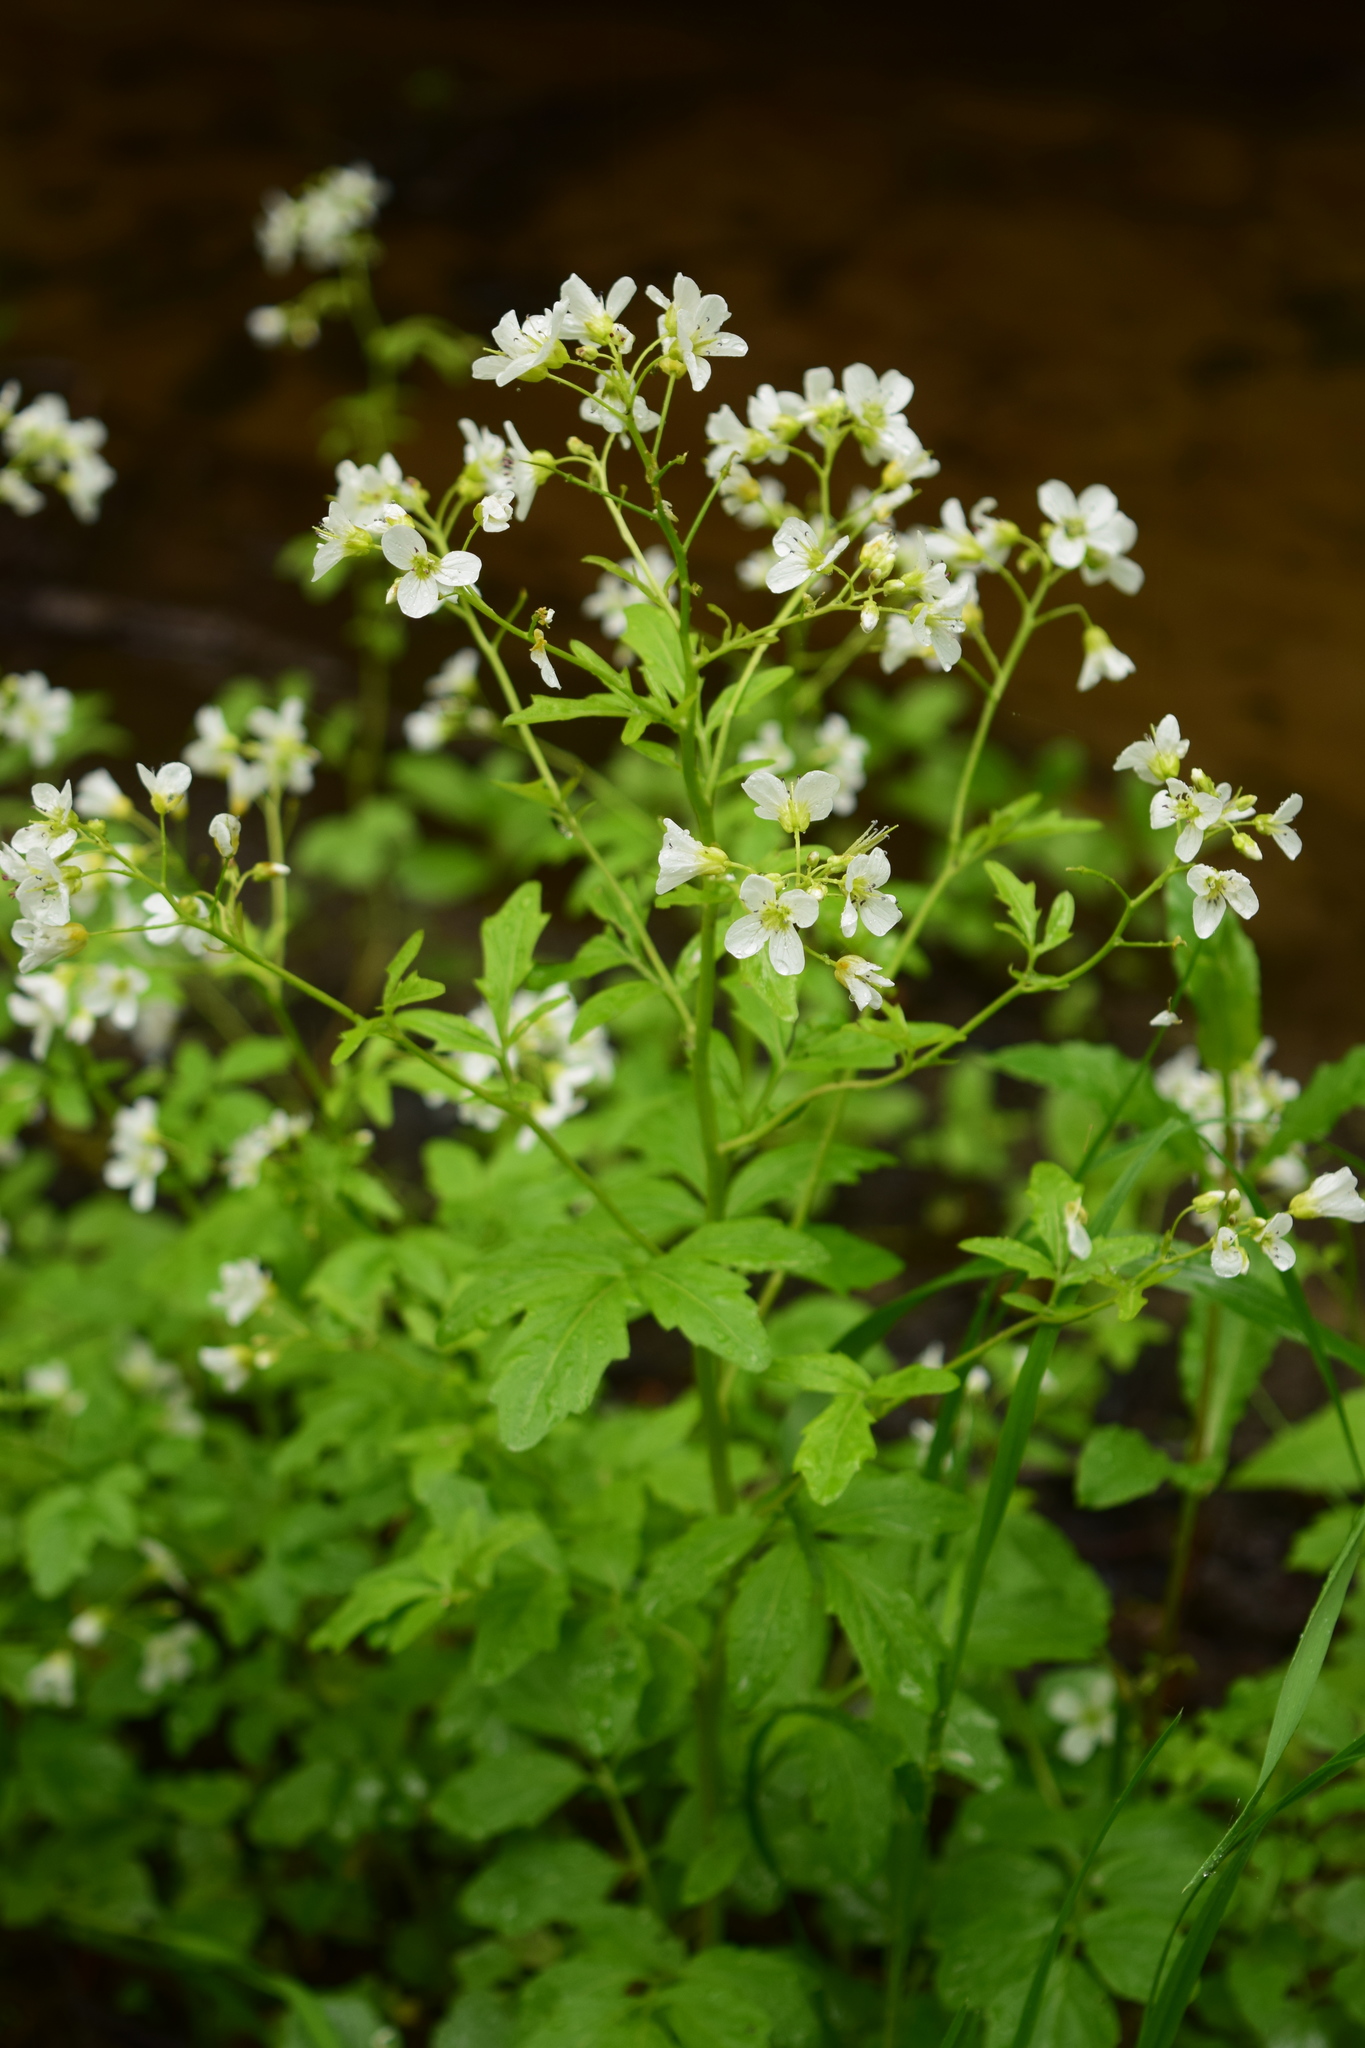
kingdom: Plantae
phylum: Tracheophyta
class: Magnoliopsida
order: Brassicales
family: Brassicaceae
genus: Cardamine
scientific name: Cardamine amara
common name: Large bitter-cress
